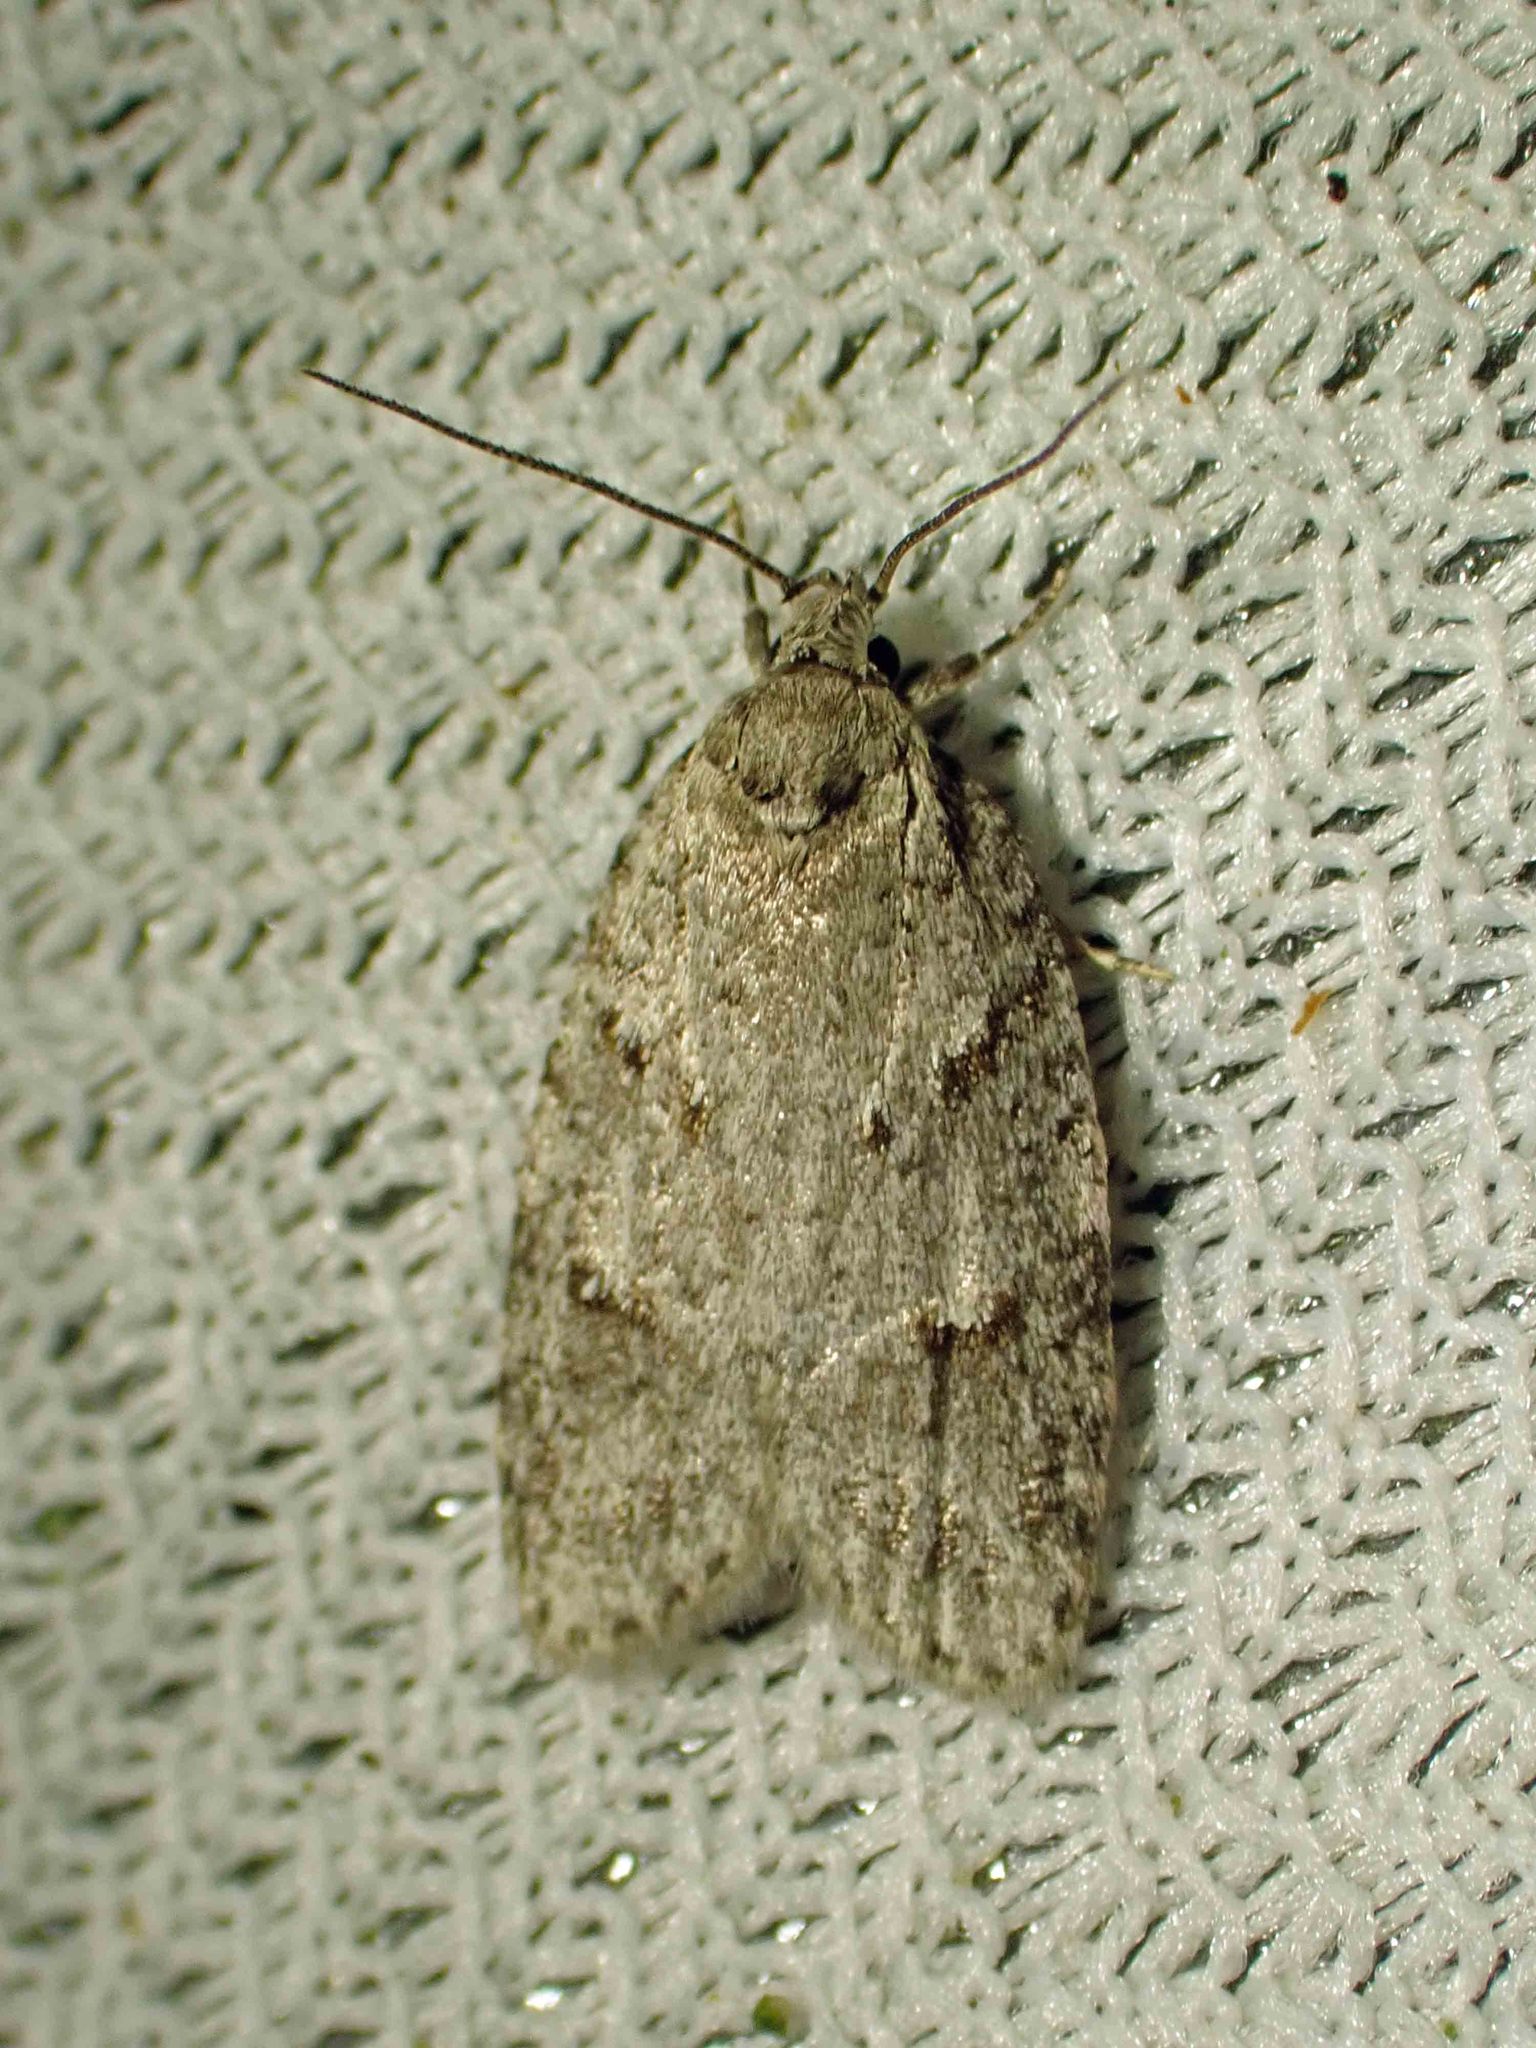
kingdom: Animalia
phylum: Arthropoda
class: Insecta
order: Lepidoptera
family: Depressariidae
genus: Bibarrambla
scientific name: Bibarrambla allenella
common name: Bog bibarrambla moth
